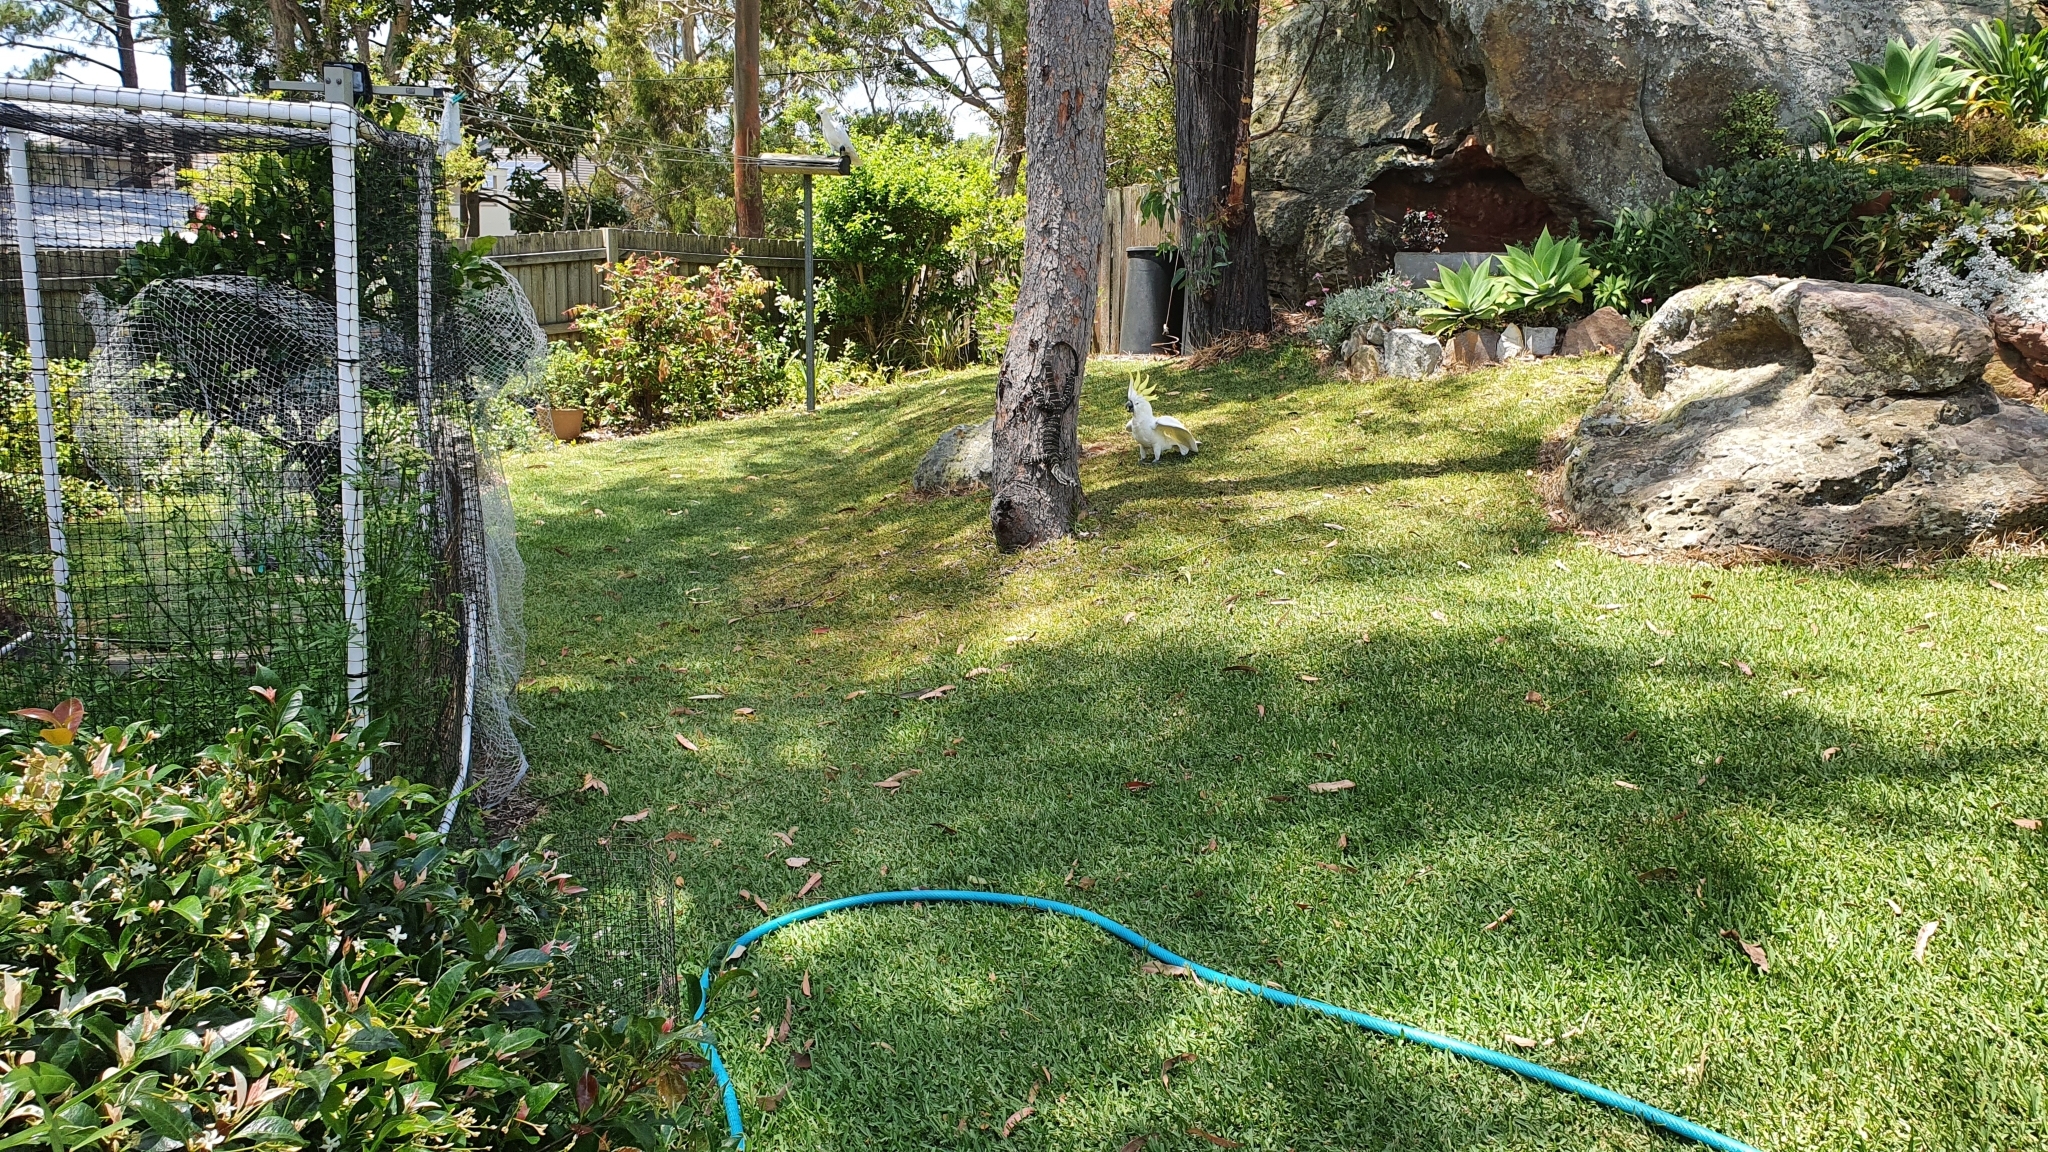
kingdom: Animalia
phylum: Chordata
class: Aves
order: Psittaciformes
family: Psittacidae
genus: Cacatua
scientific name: Cacatua galerita
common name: Sulphur-crested cockatoo
